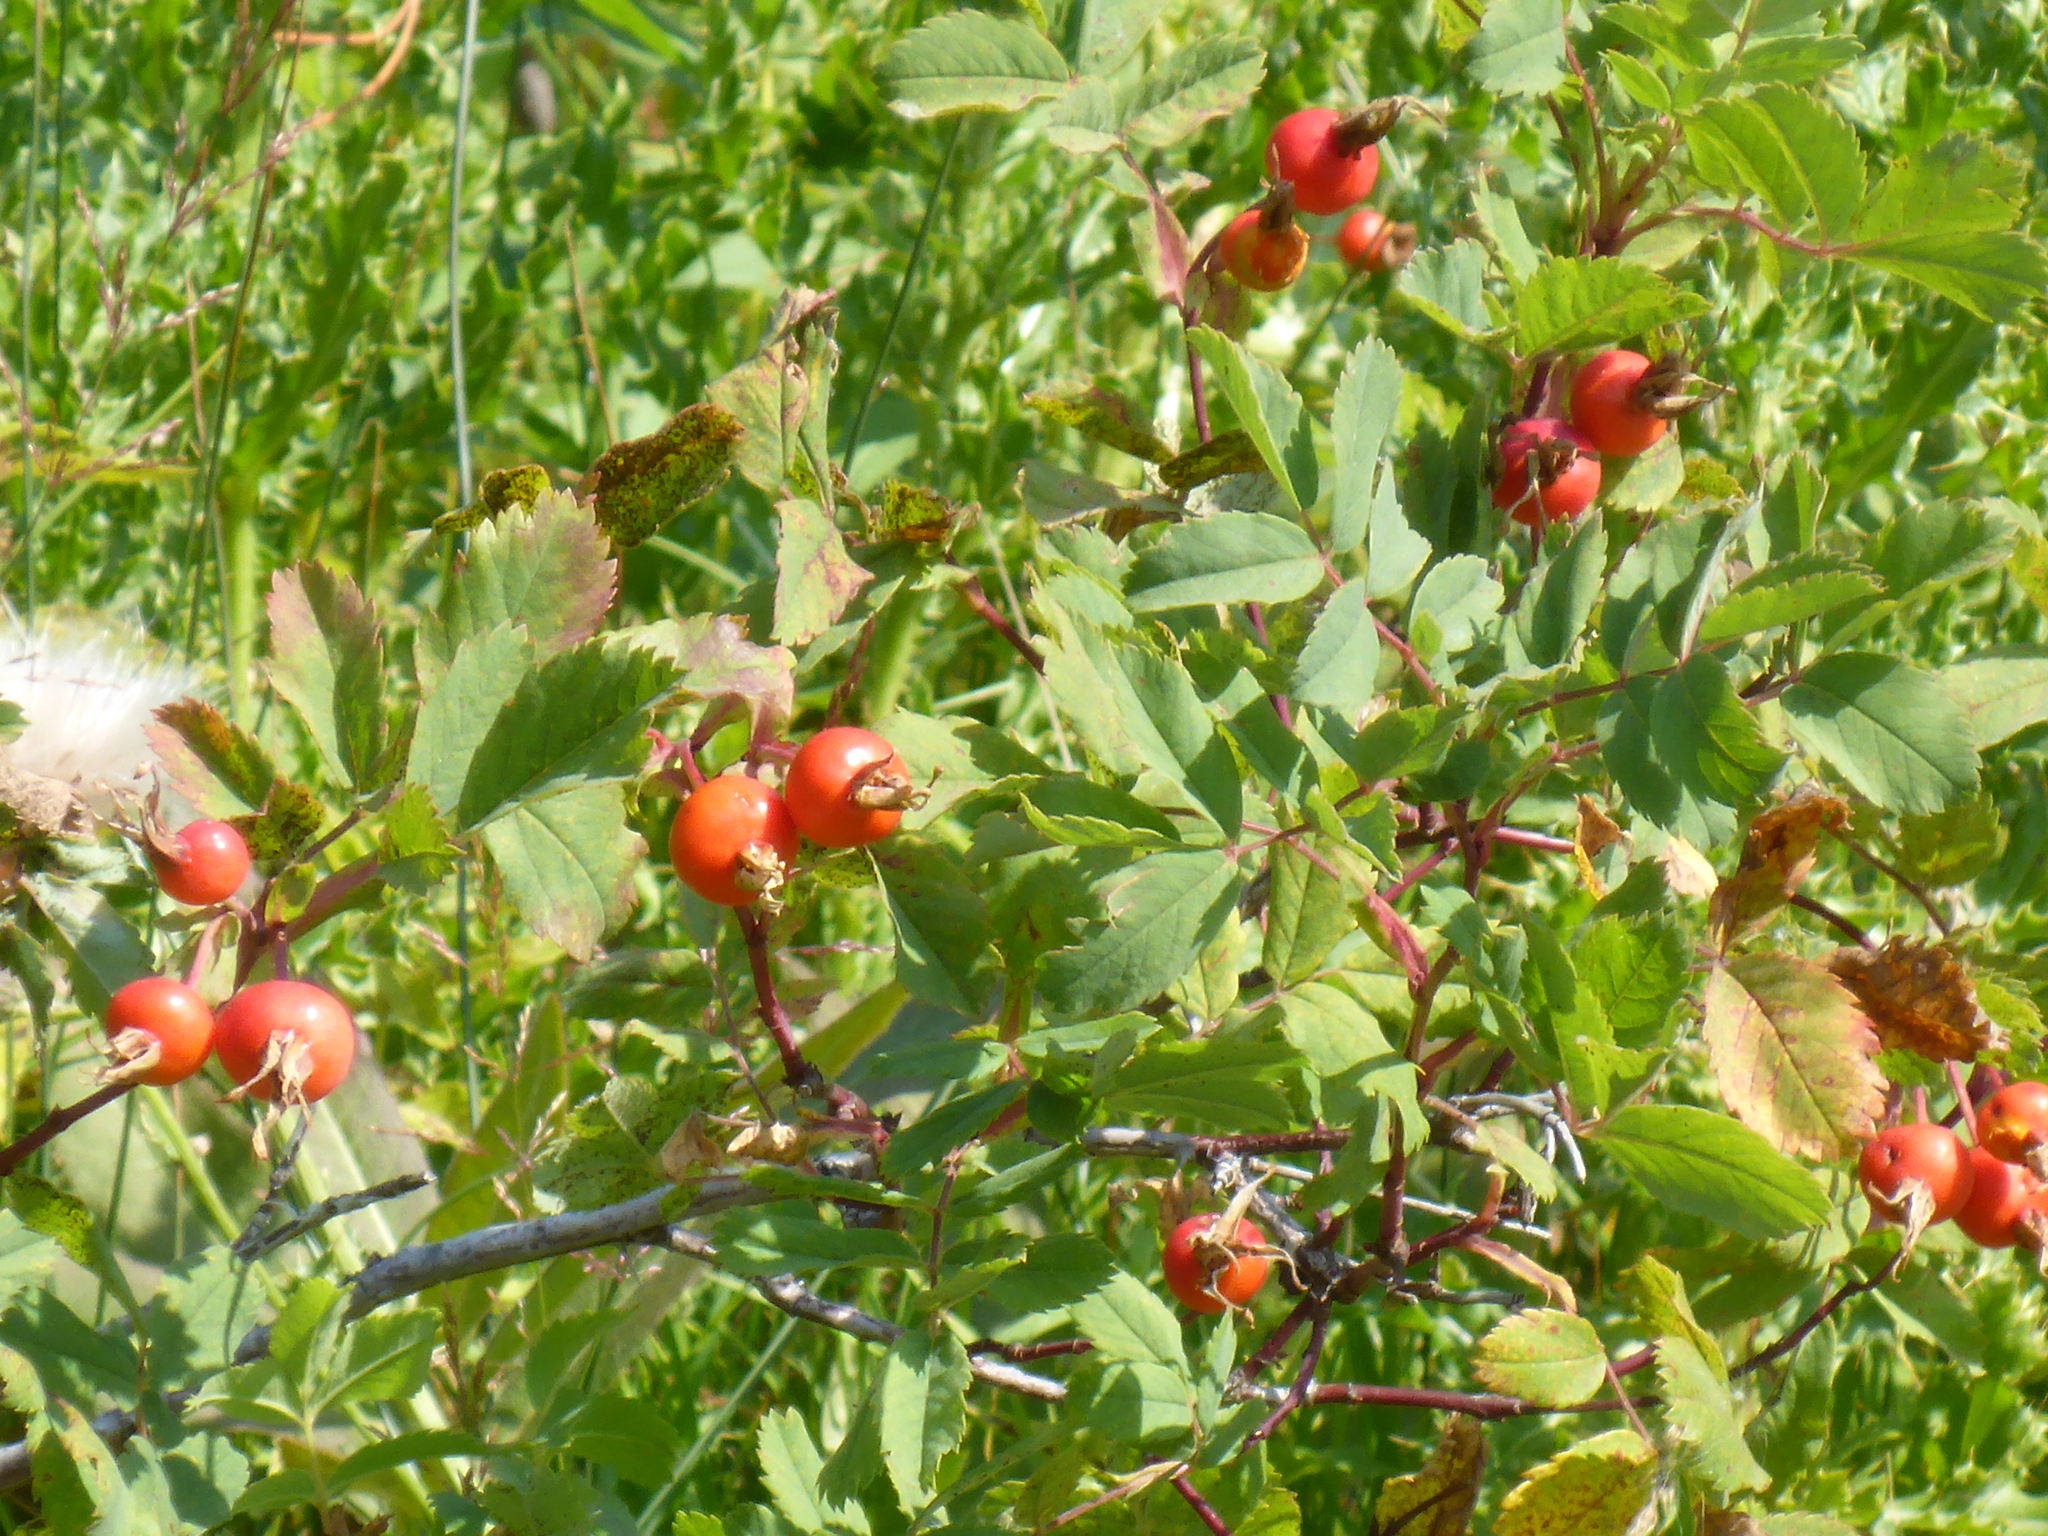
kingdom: Plantae
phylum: Tracheophyta
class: Magnoliopsida
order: Rosales
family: Rosaceae
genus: Rosa
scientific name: Rosa woodsii
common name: Woods's rose
